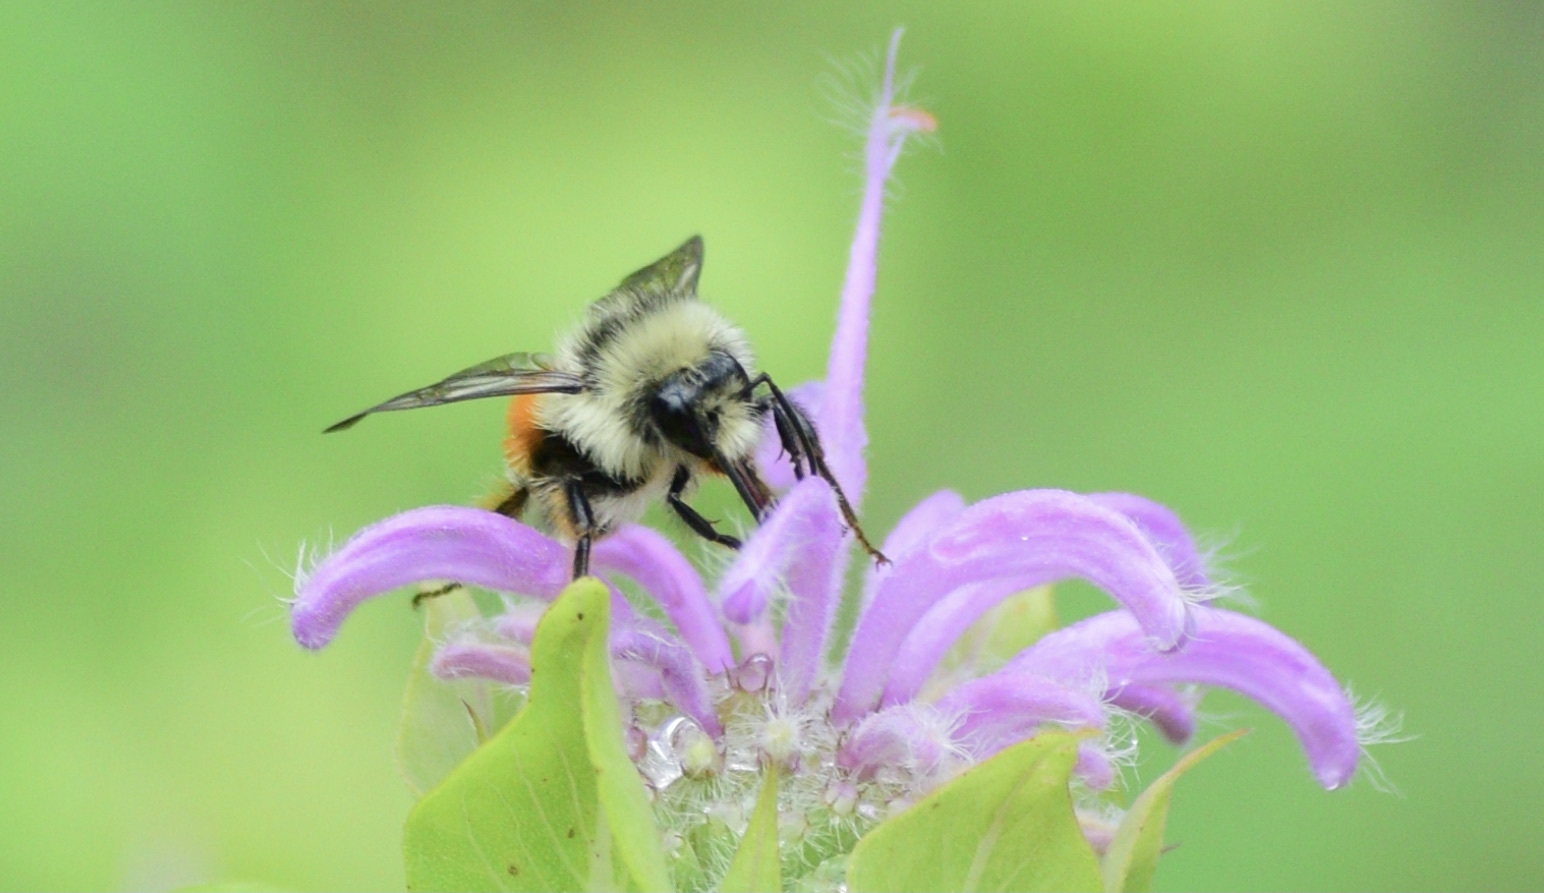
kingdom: Animalia
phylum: Arthropoda
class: Insecta
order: Hymenoptera
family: Apidae
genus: Bombus
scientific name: Bombus ternarius
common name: Tri-colored bumble bee
